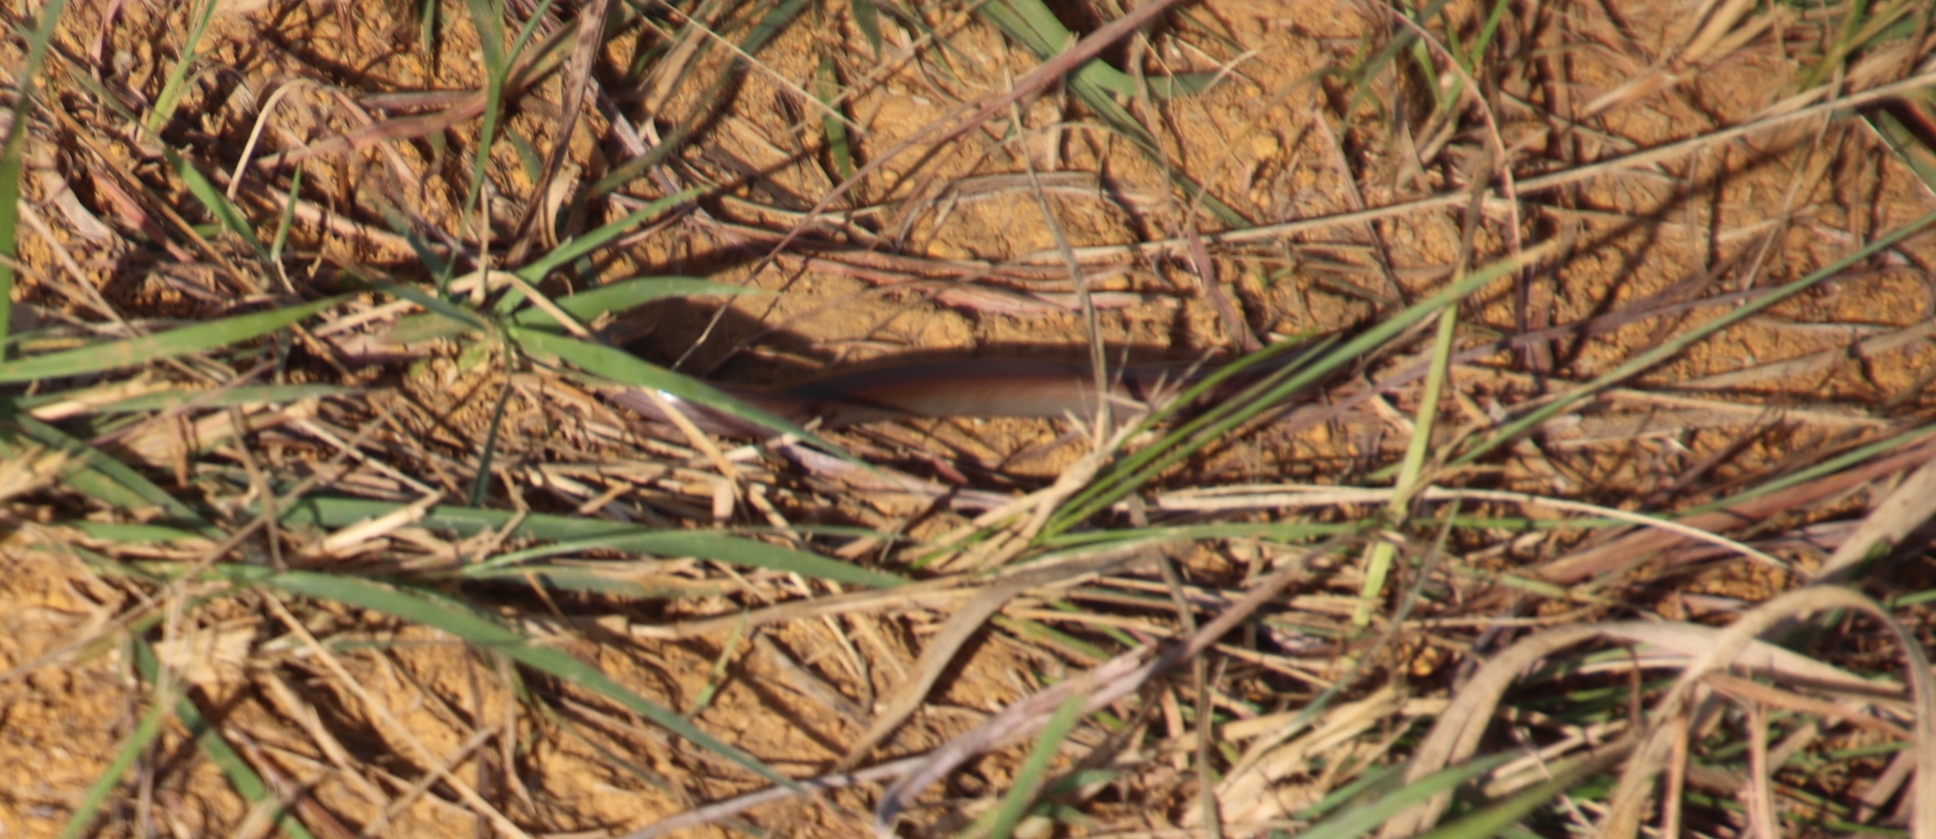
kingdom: Animalia
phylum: Chordata
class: Squamata
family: Pseudoxyrhophiidae
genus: Duberria
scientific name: Duberria lutrix
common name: Common slug eater
